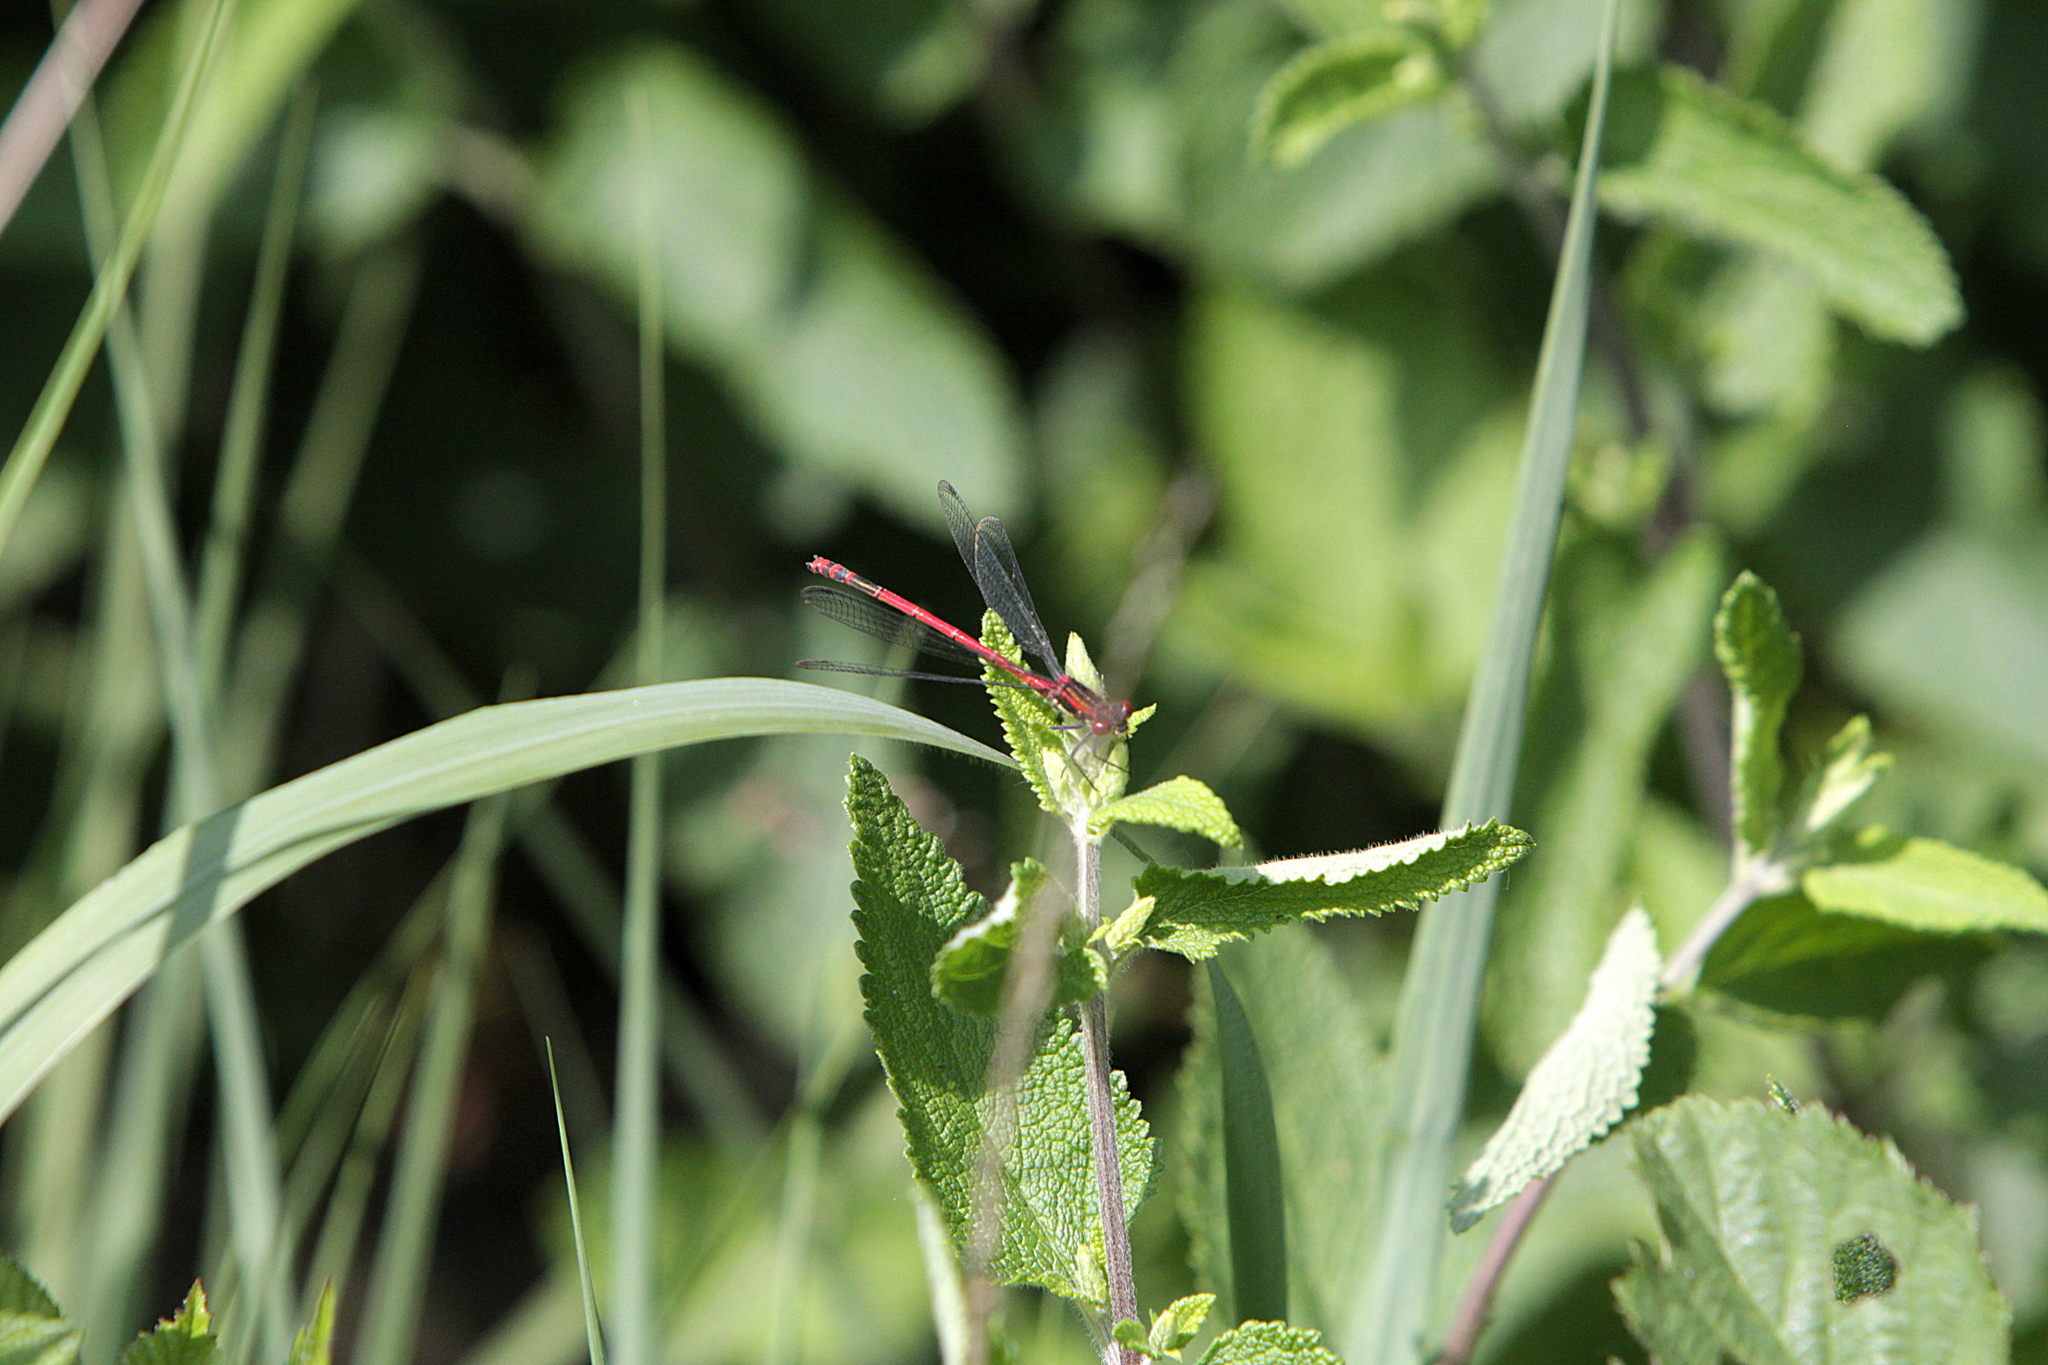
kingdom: Animalia
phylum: Arthropoda
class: Insecta
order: Odonata
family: Coenagrionidae
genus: Pyrrhosoma
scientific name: Pyrrhosoma nymphula
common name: Large red damsel
